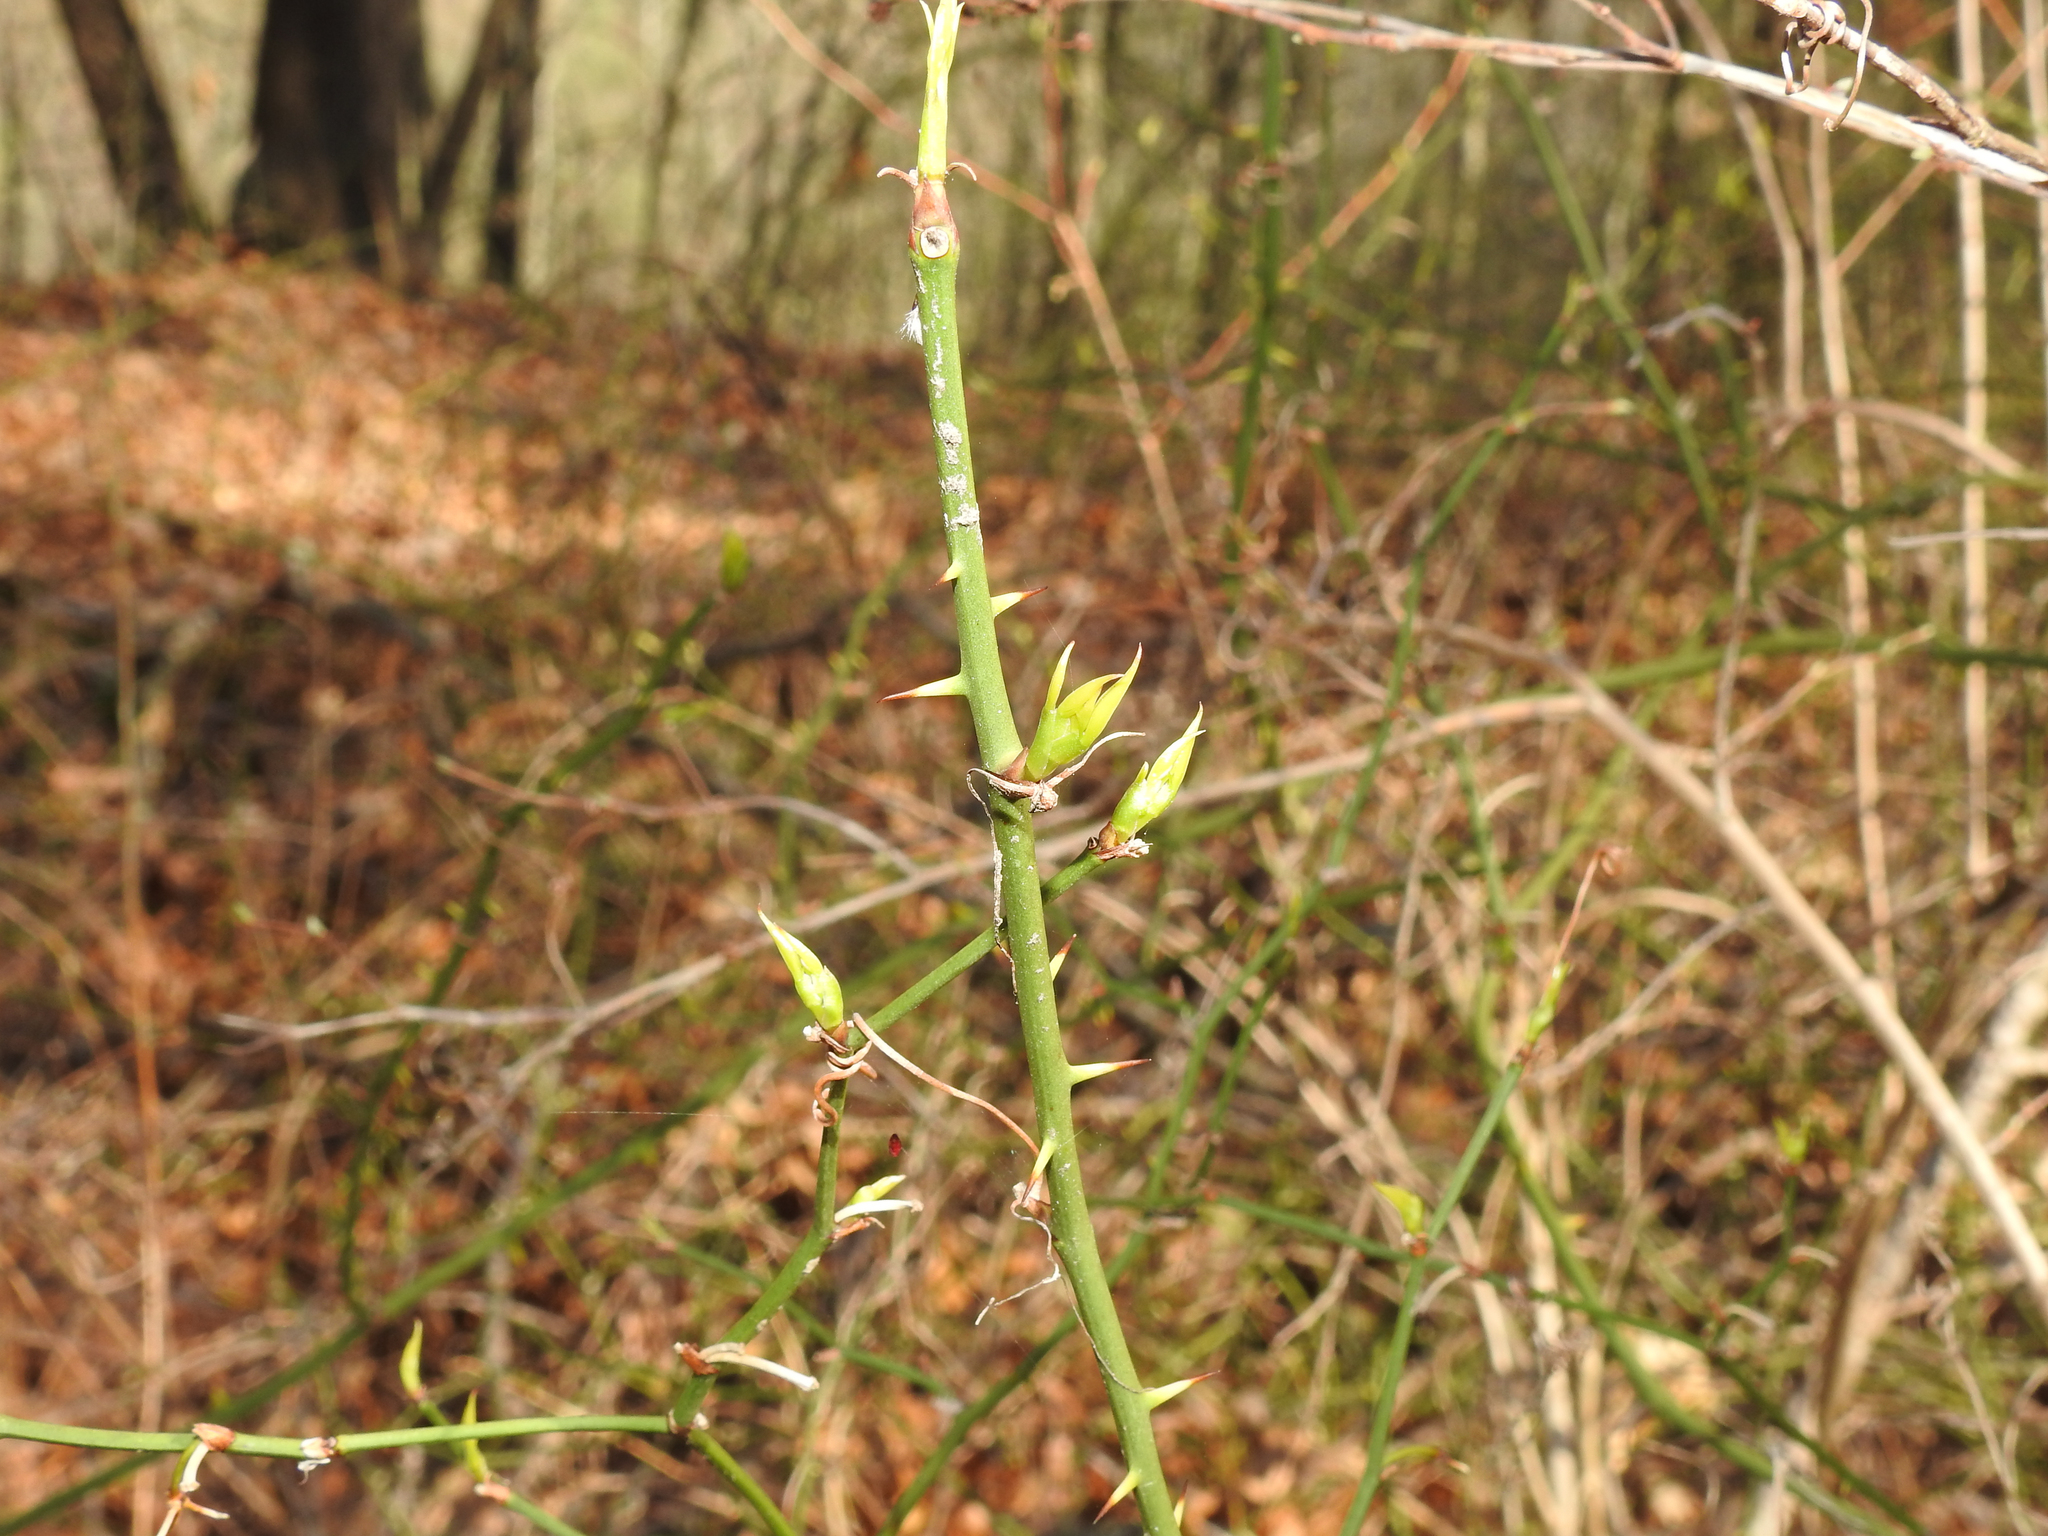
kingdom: Plantae
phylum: Tracheophyta
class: Liliopsida
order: Liliales
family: Smilacaceae
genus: Smilax
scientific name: Smilax rotundifolia
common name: Bullbriar
